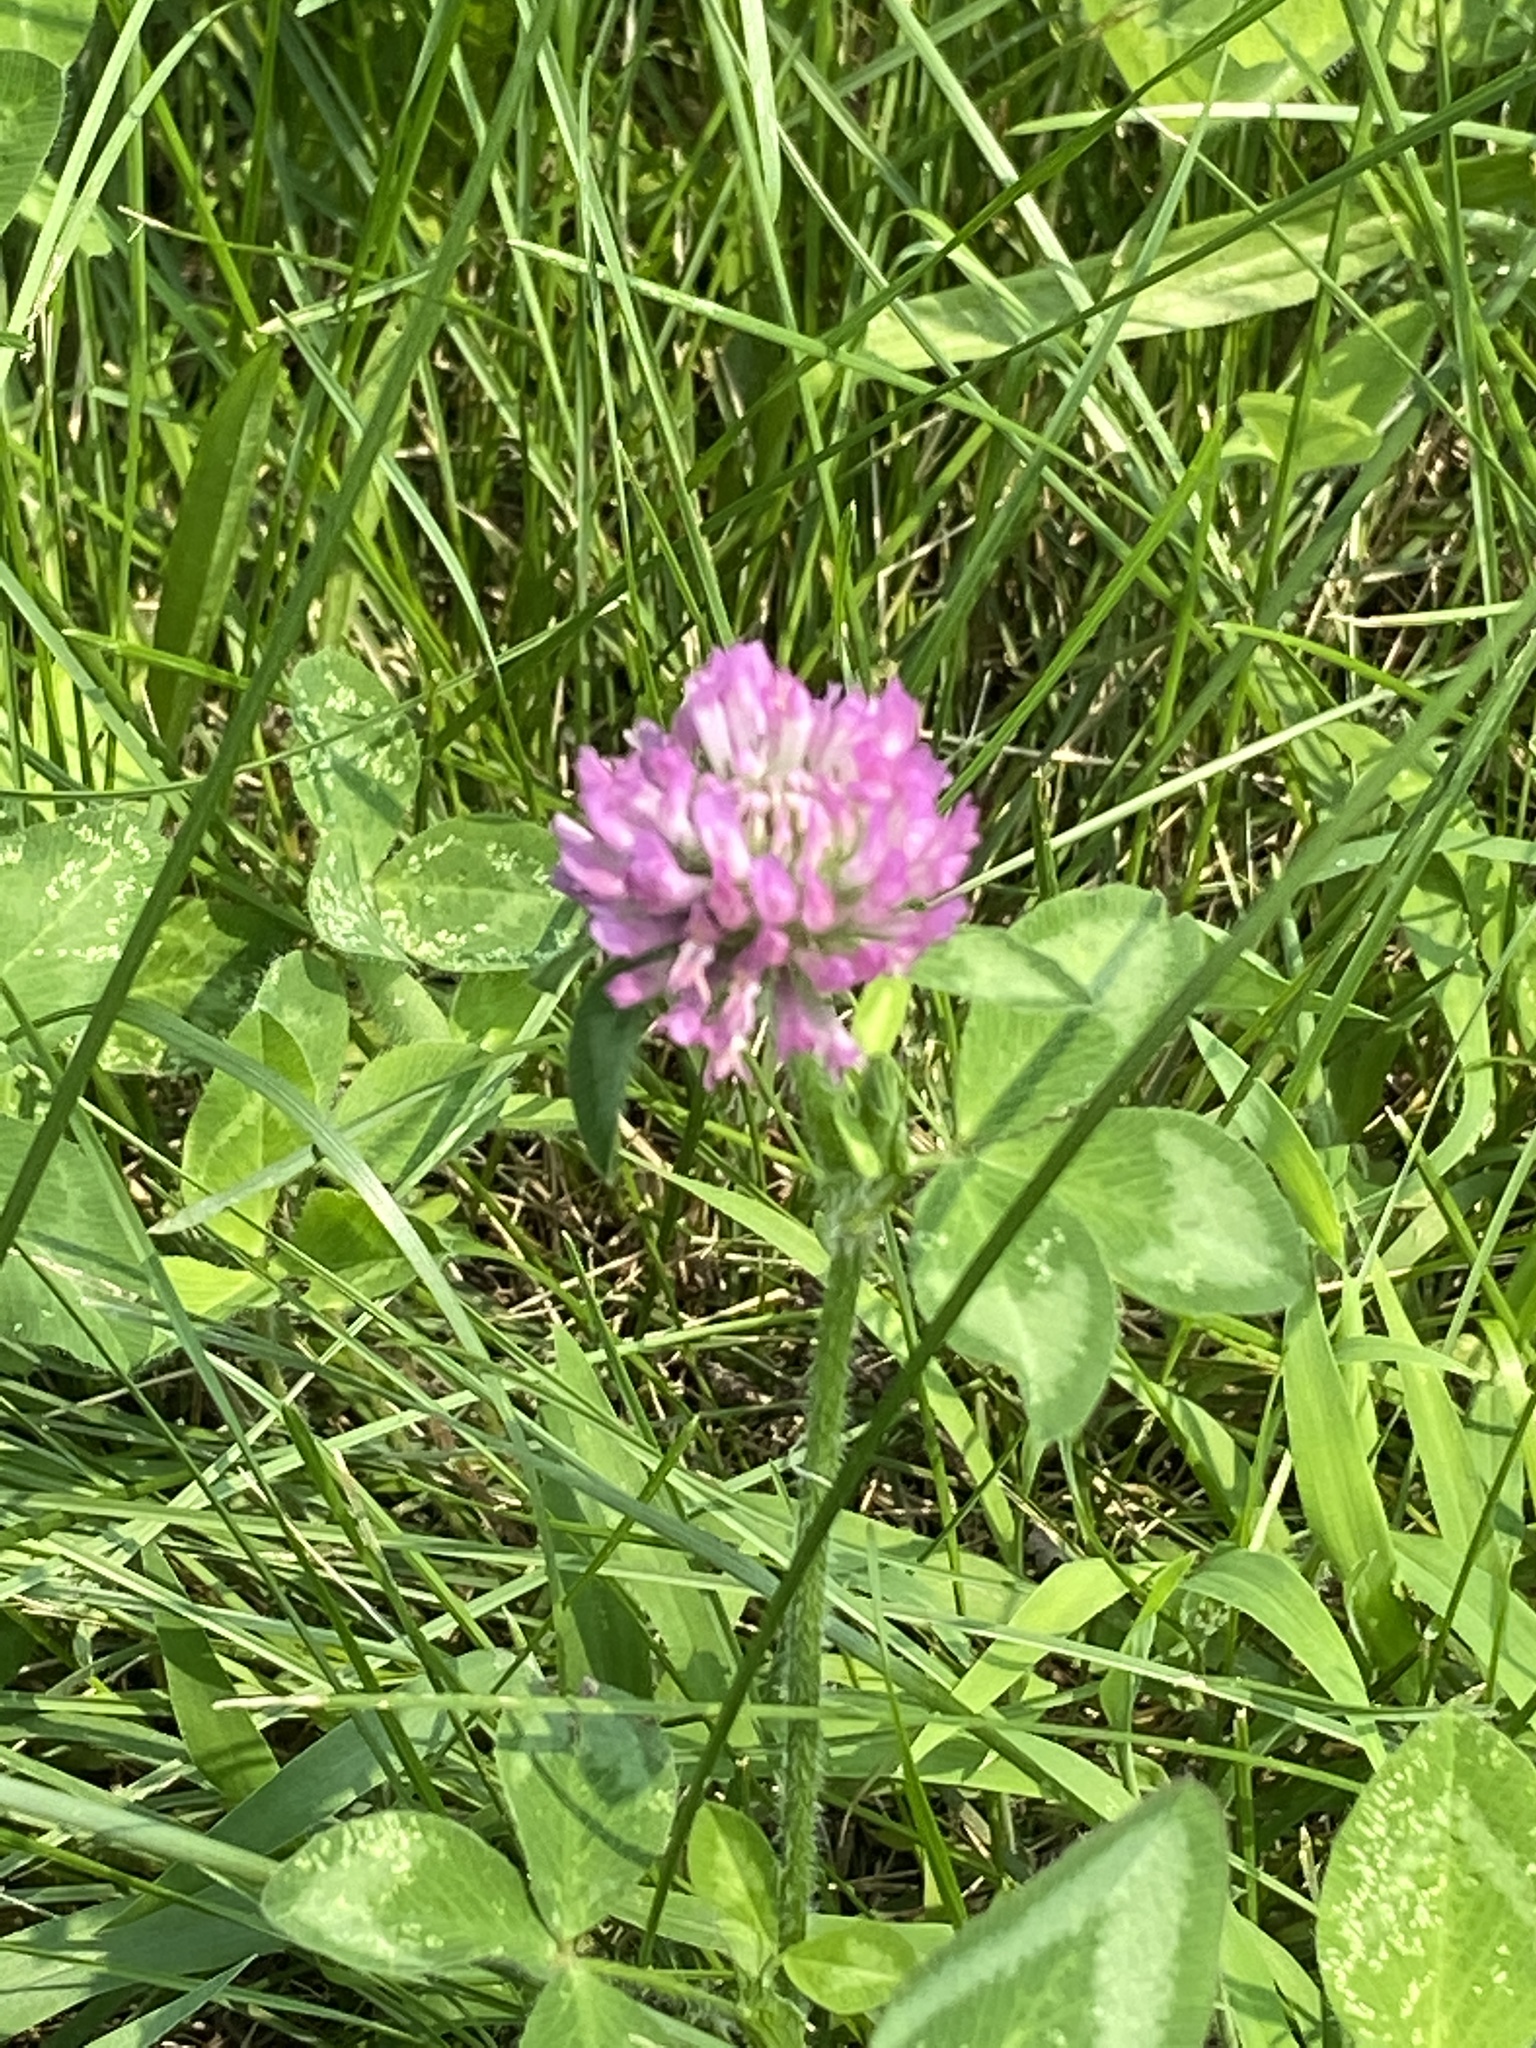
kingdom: Plantae
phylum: Tracheophyta
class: Magnoliopsida
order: Fabales
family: Fabaceae
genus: Trifolium
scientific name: Trifolium pratense
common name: Red clover
